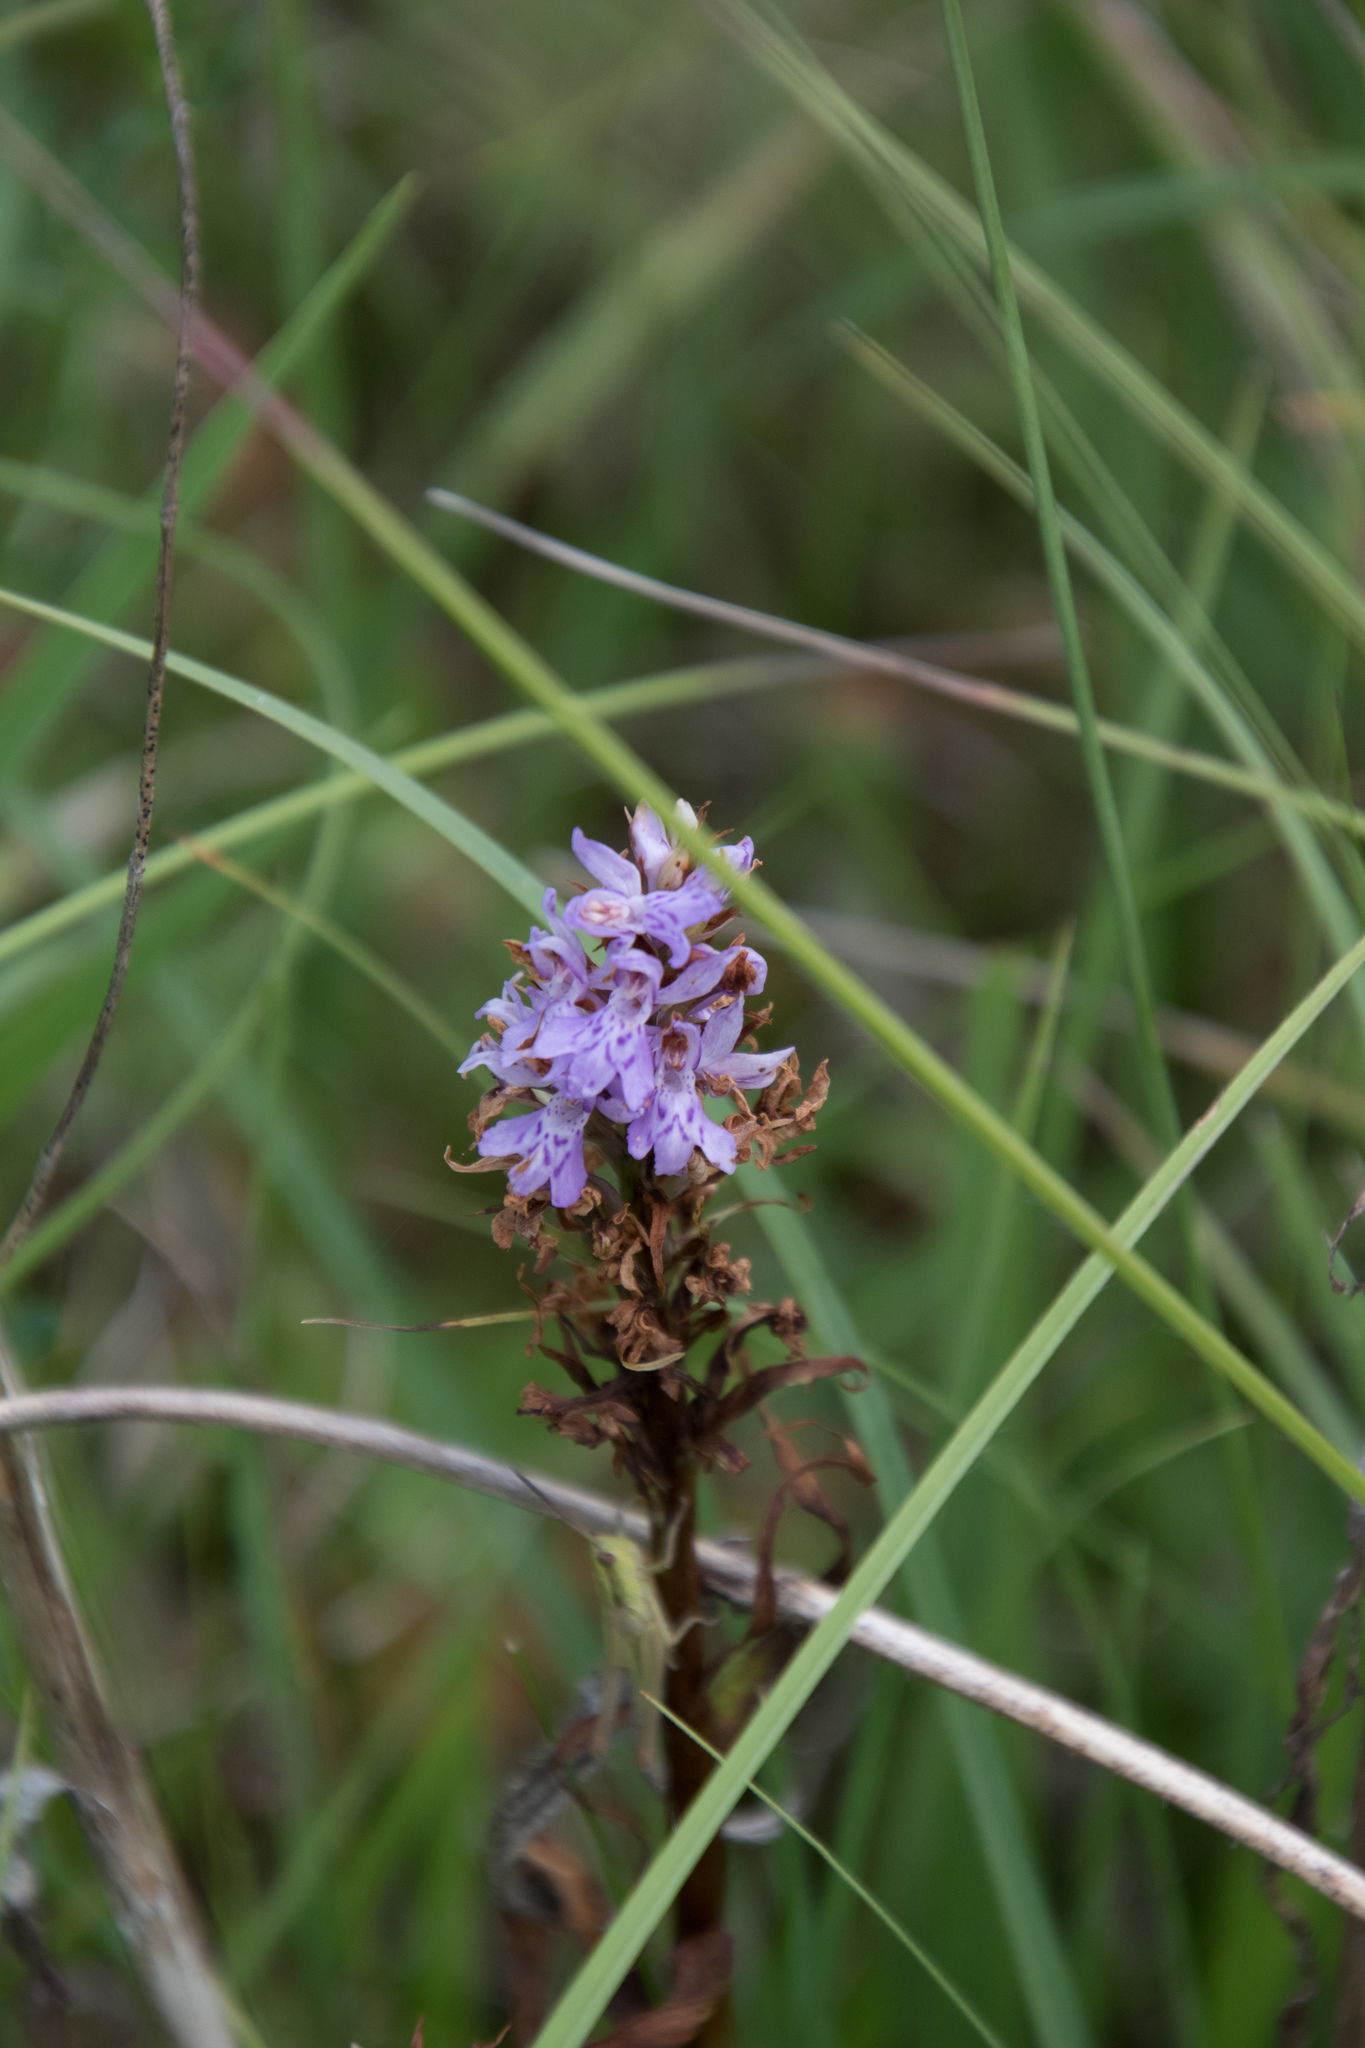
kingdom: Plantae
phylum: Tracheophyta
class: Liliopsida
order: Asparagales
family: Orchidaceae
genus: Dactylorhiza
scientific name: Dactylorhiza maculata
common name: Heath spotted-orchid
